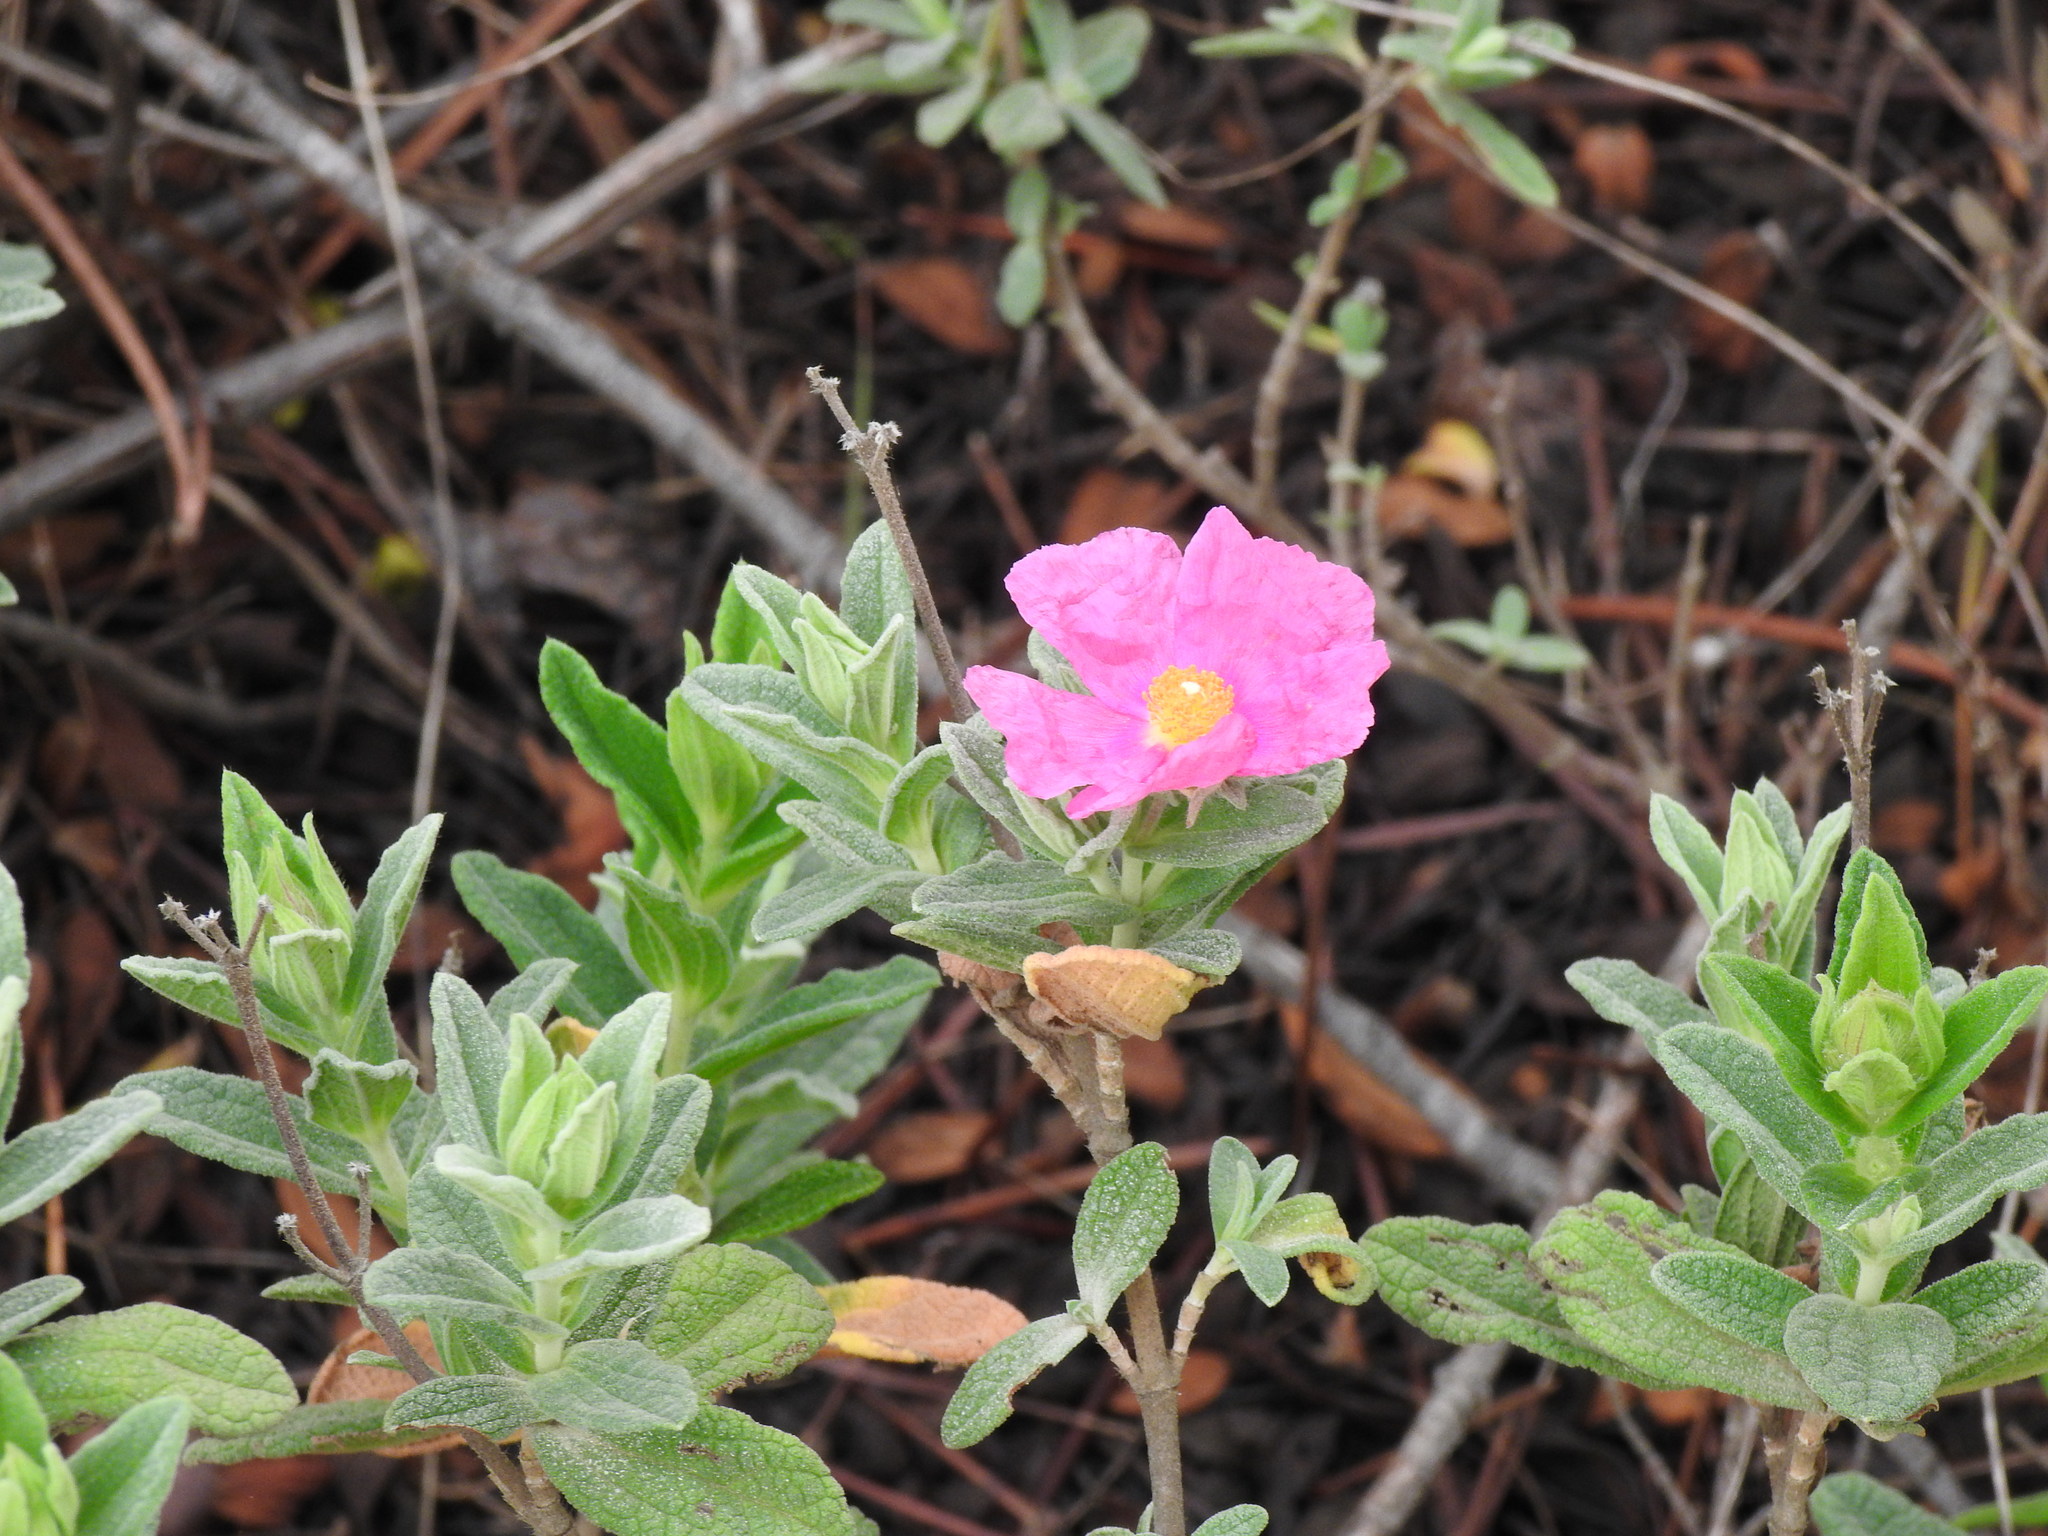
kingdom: Plantae
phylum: Tracheophyta
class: Magnoliopsida
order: Malvales
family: Cistaceae
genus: Cistus
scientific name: Cistus albidus
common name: White-leaf rock-rose
